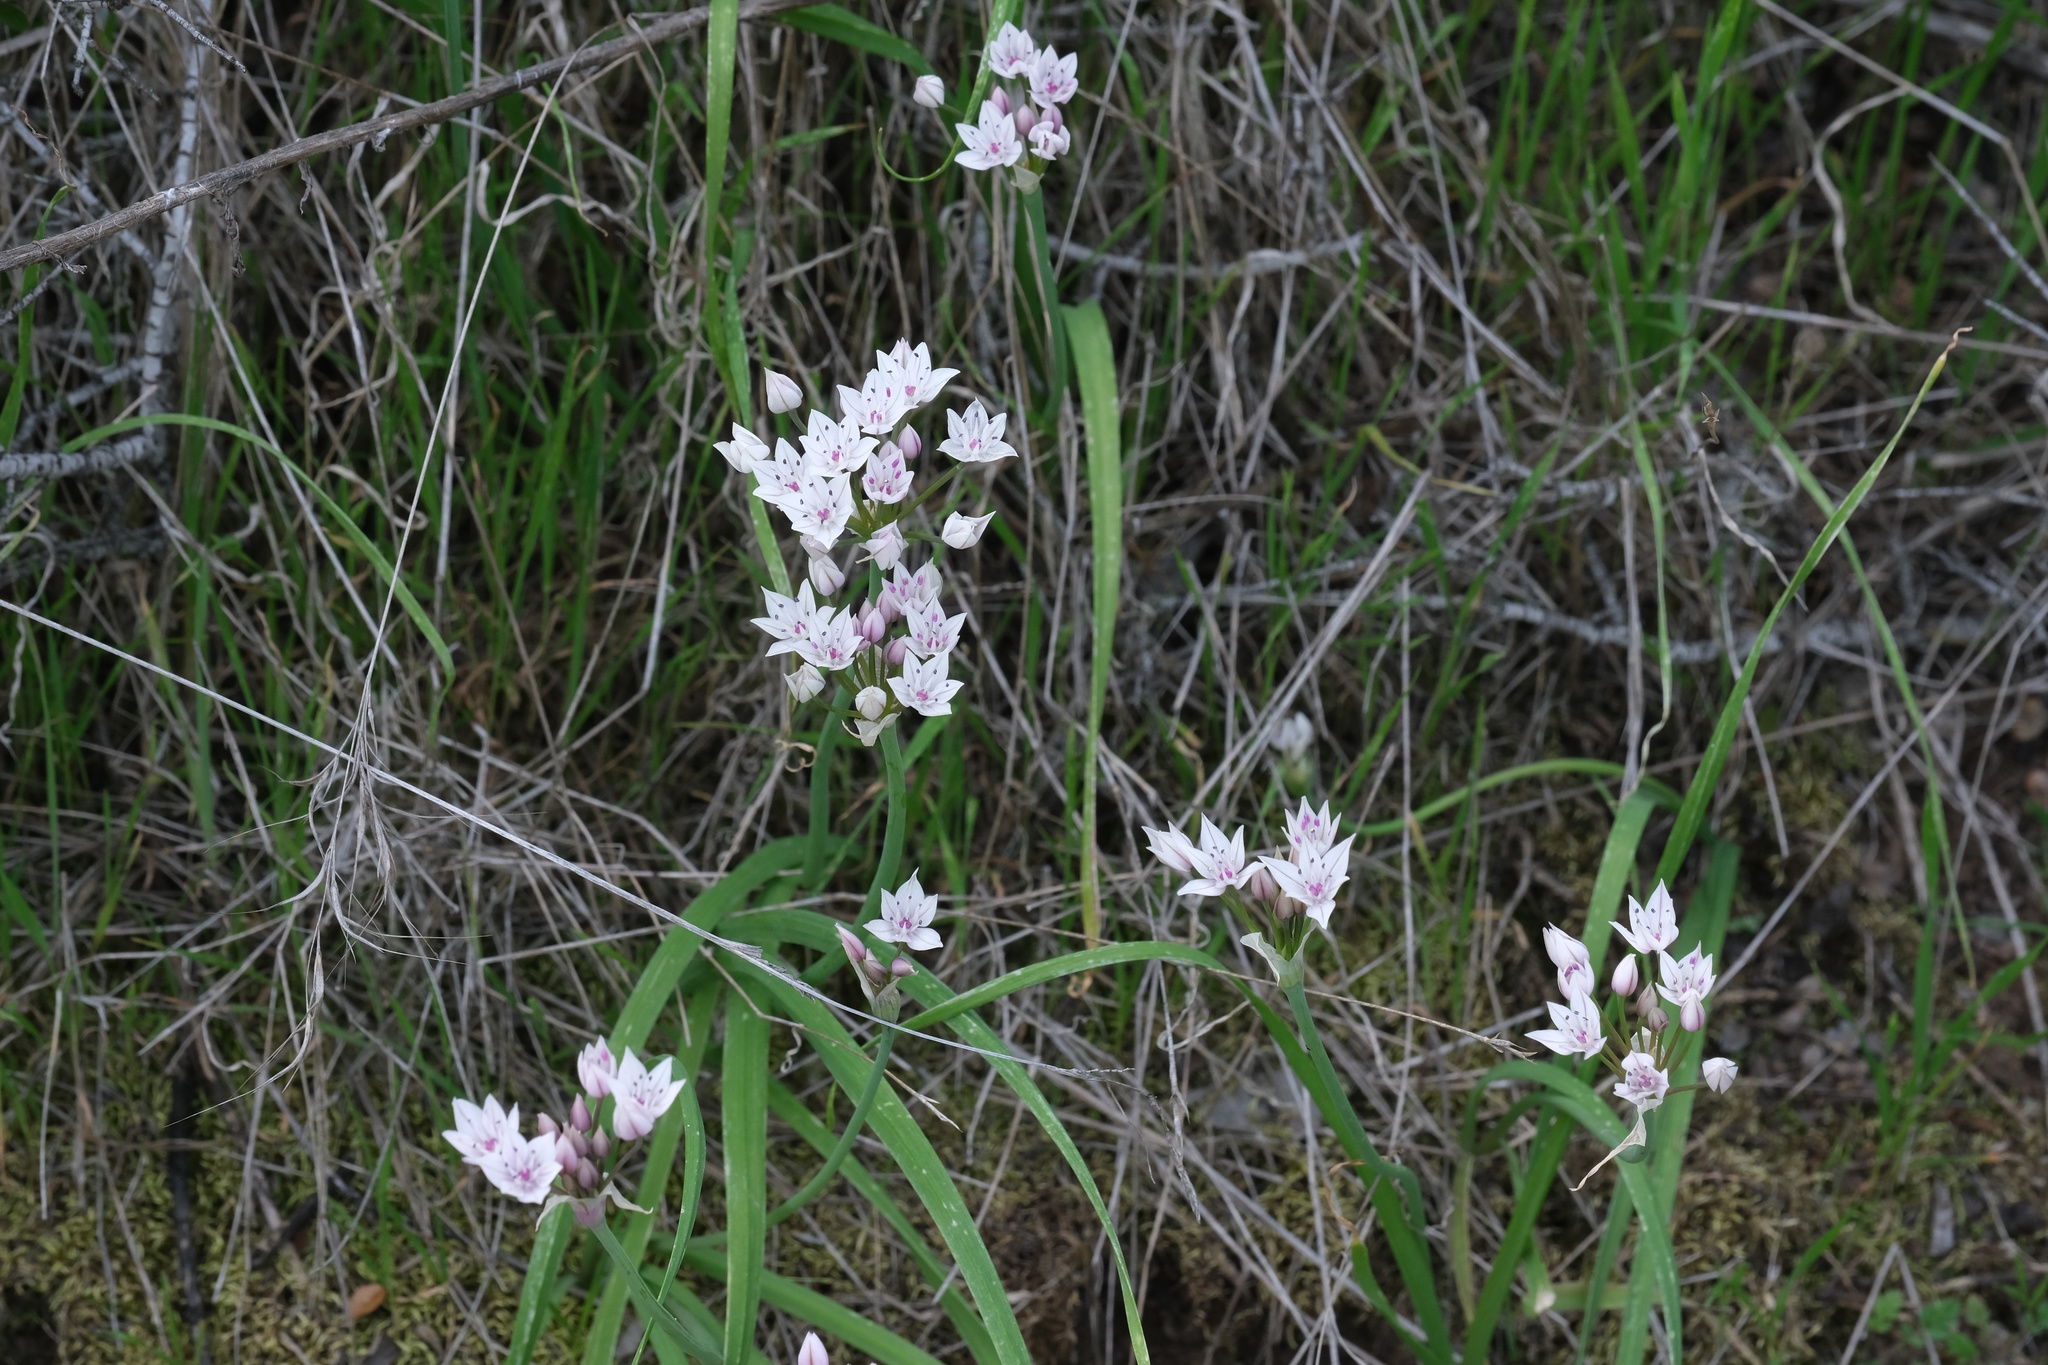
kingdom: Plantae
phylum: Tracheophyta
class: Liliopsida
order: Asparagales
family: Amaryllidaceae
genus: Allium
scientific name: Allium praecox
